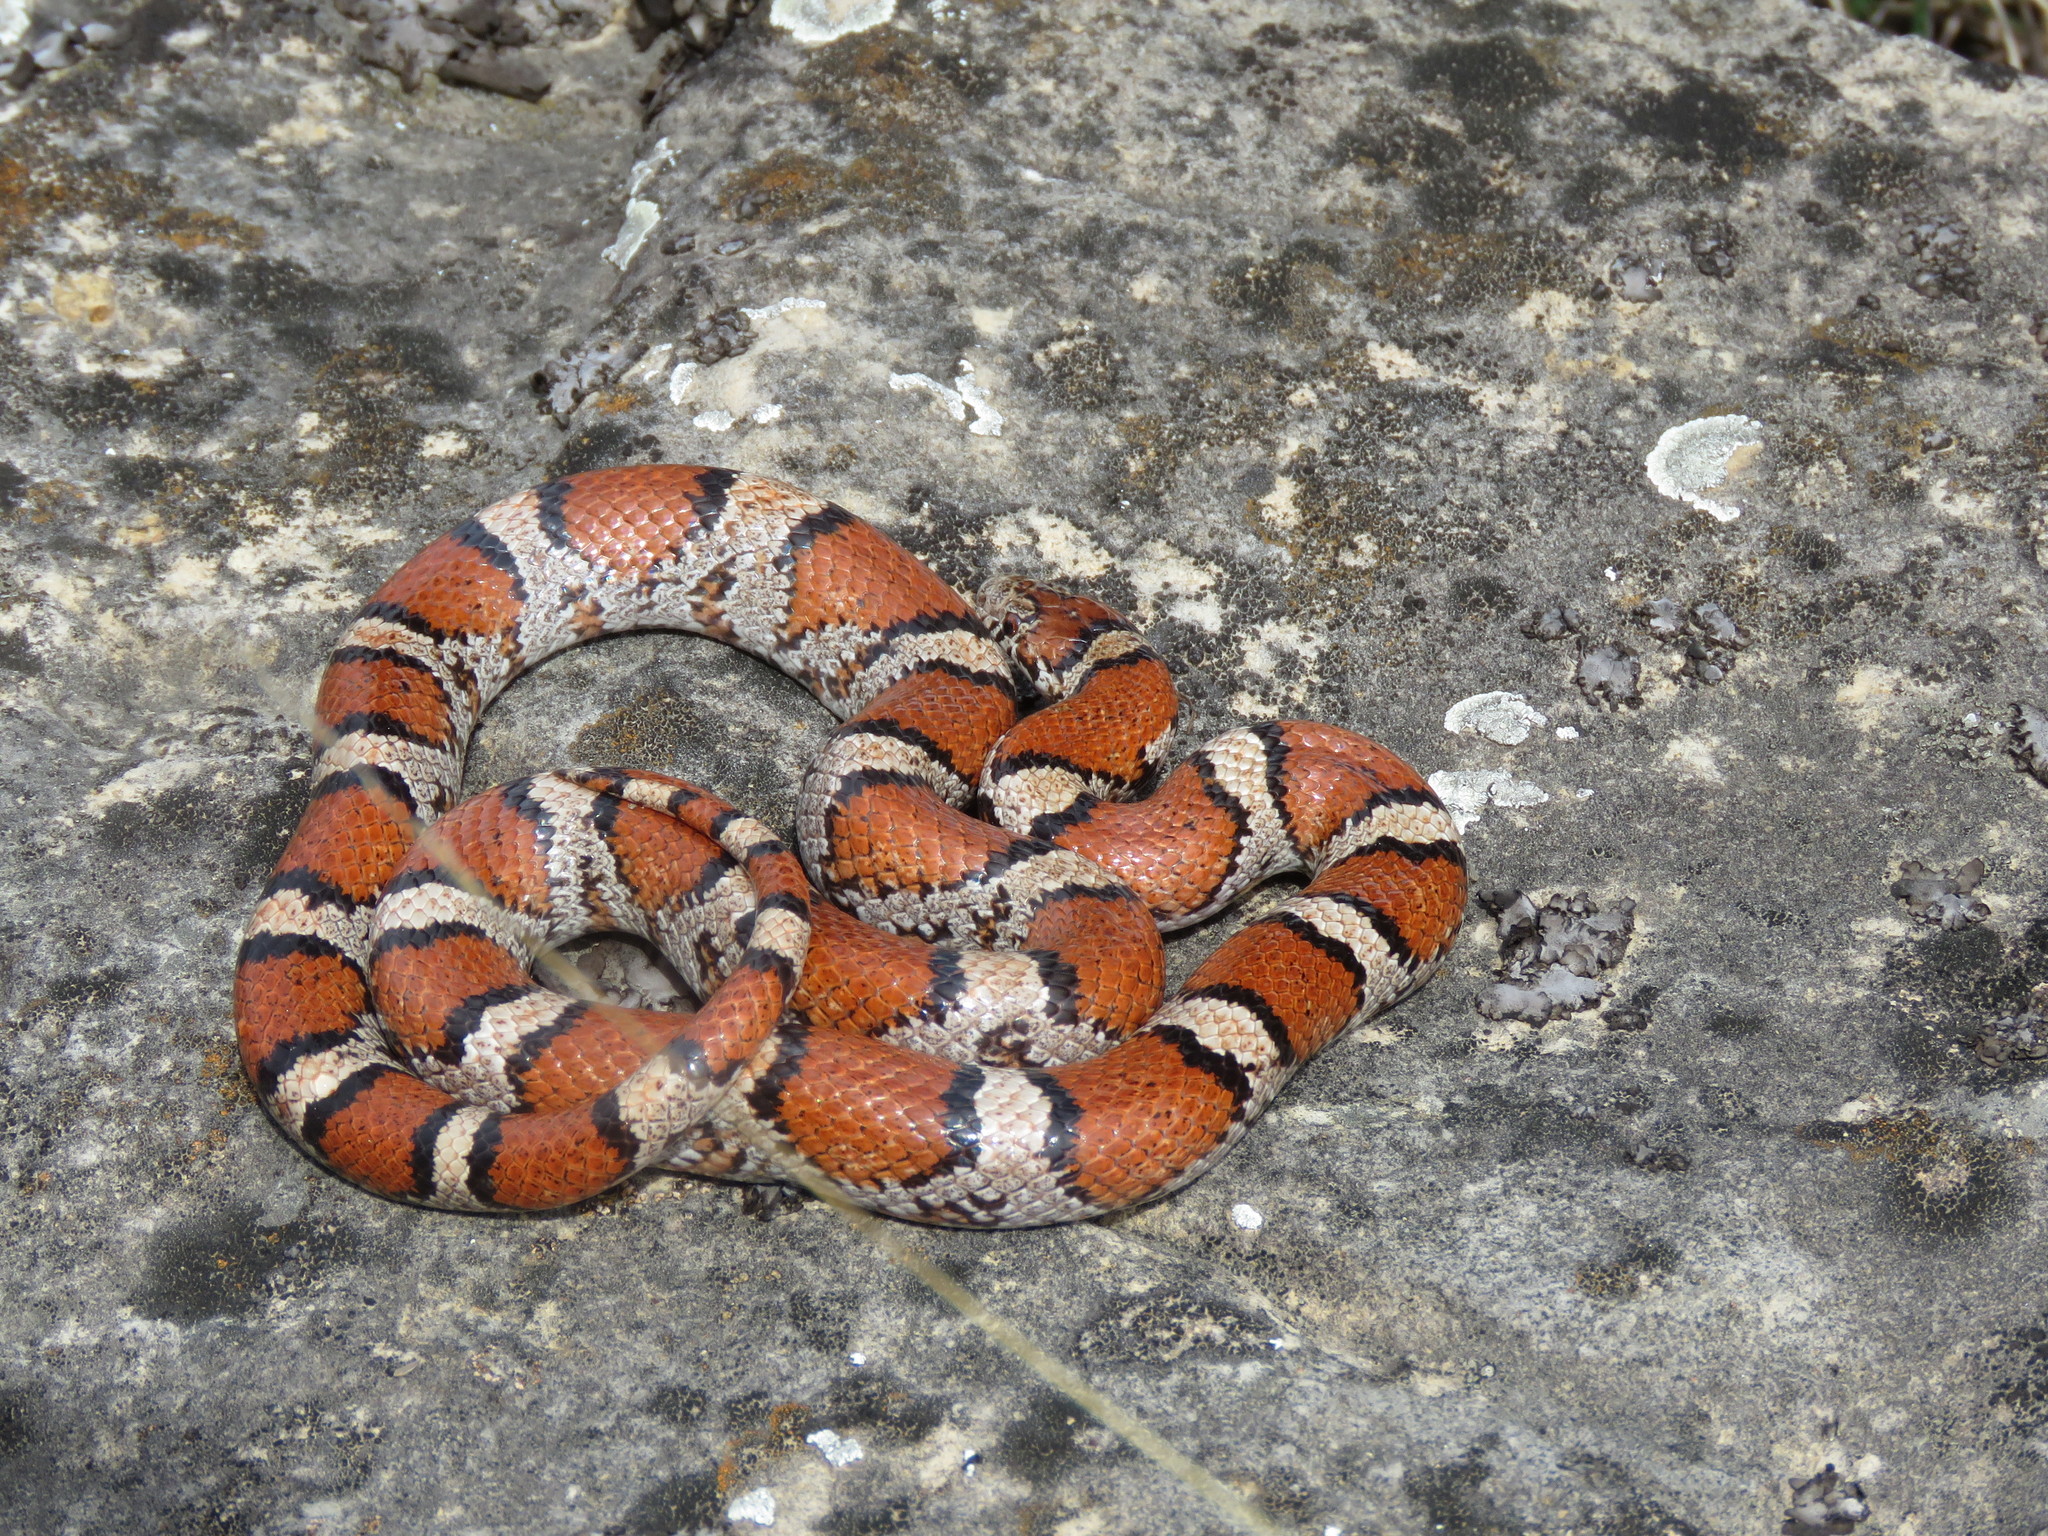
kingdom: Animalia
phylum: Chordata
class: Squamata
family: Colubridae
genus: Lampropeltis
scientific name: Lampropeltis triangulum
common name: Eastern milksnake
